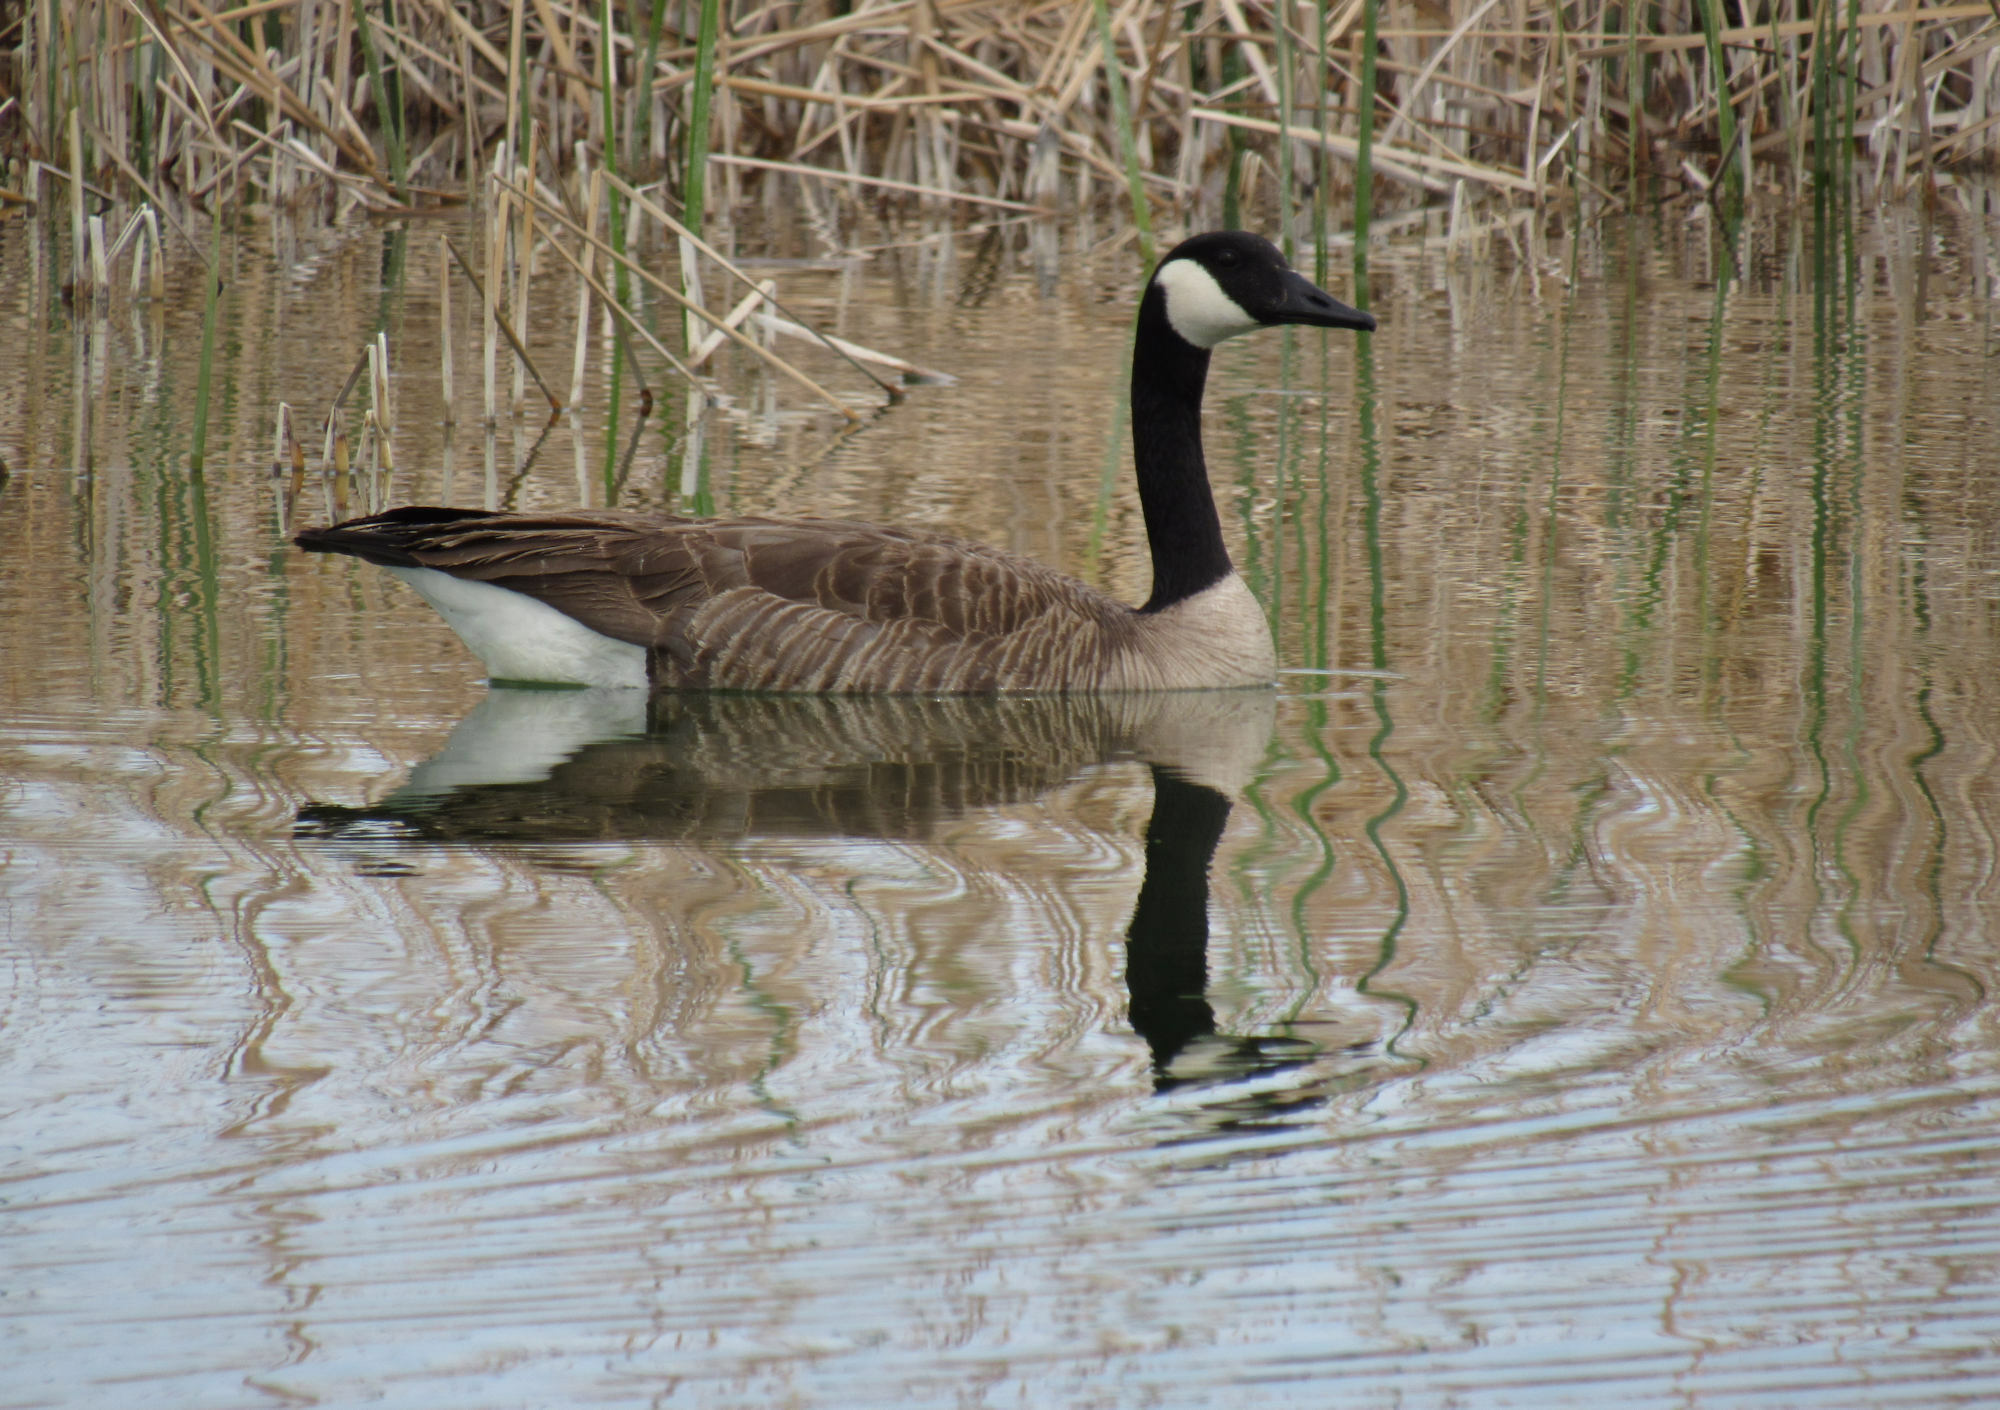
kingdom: Animalia
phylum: Chordata
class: Aves
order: Anseriformes
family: Anatidae
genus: Branta
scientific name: Branta canadensis
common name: Canada goose
